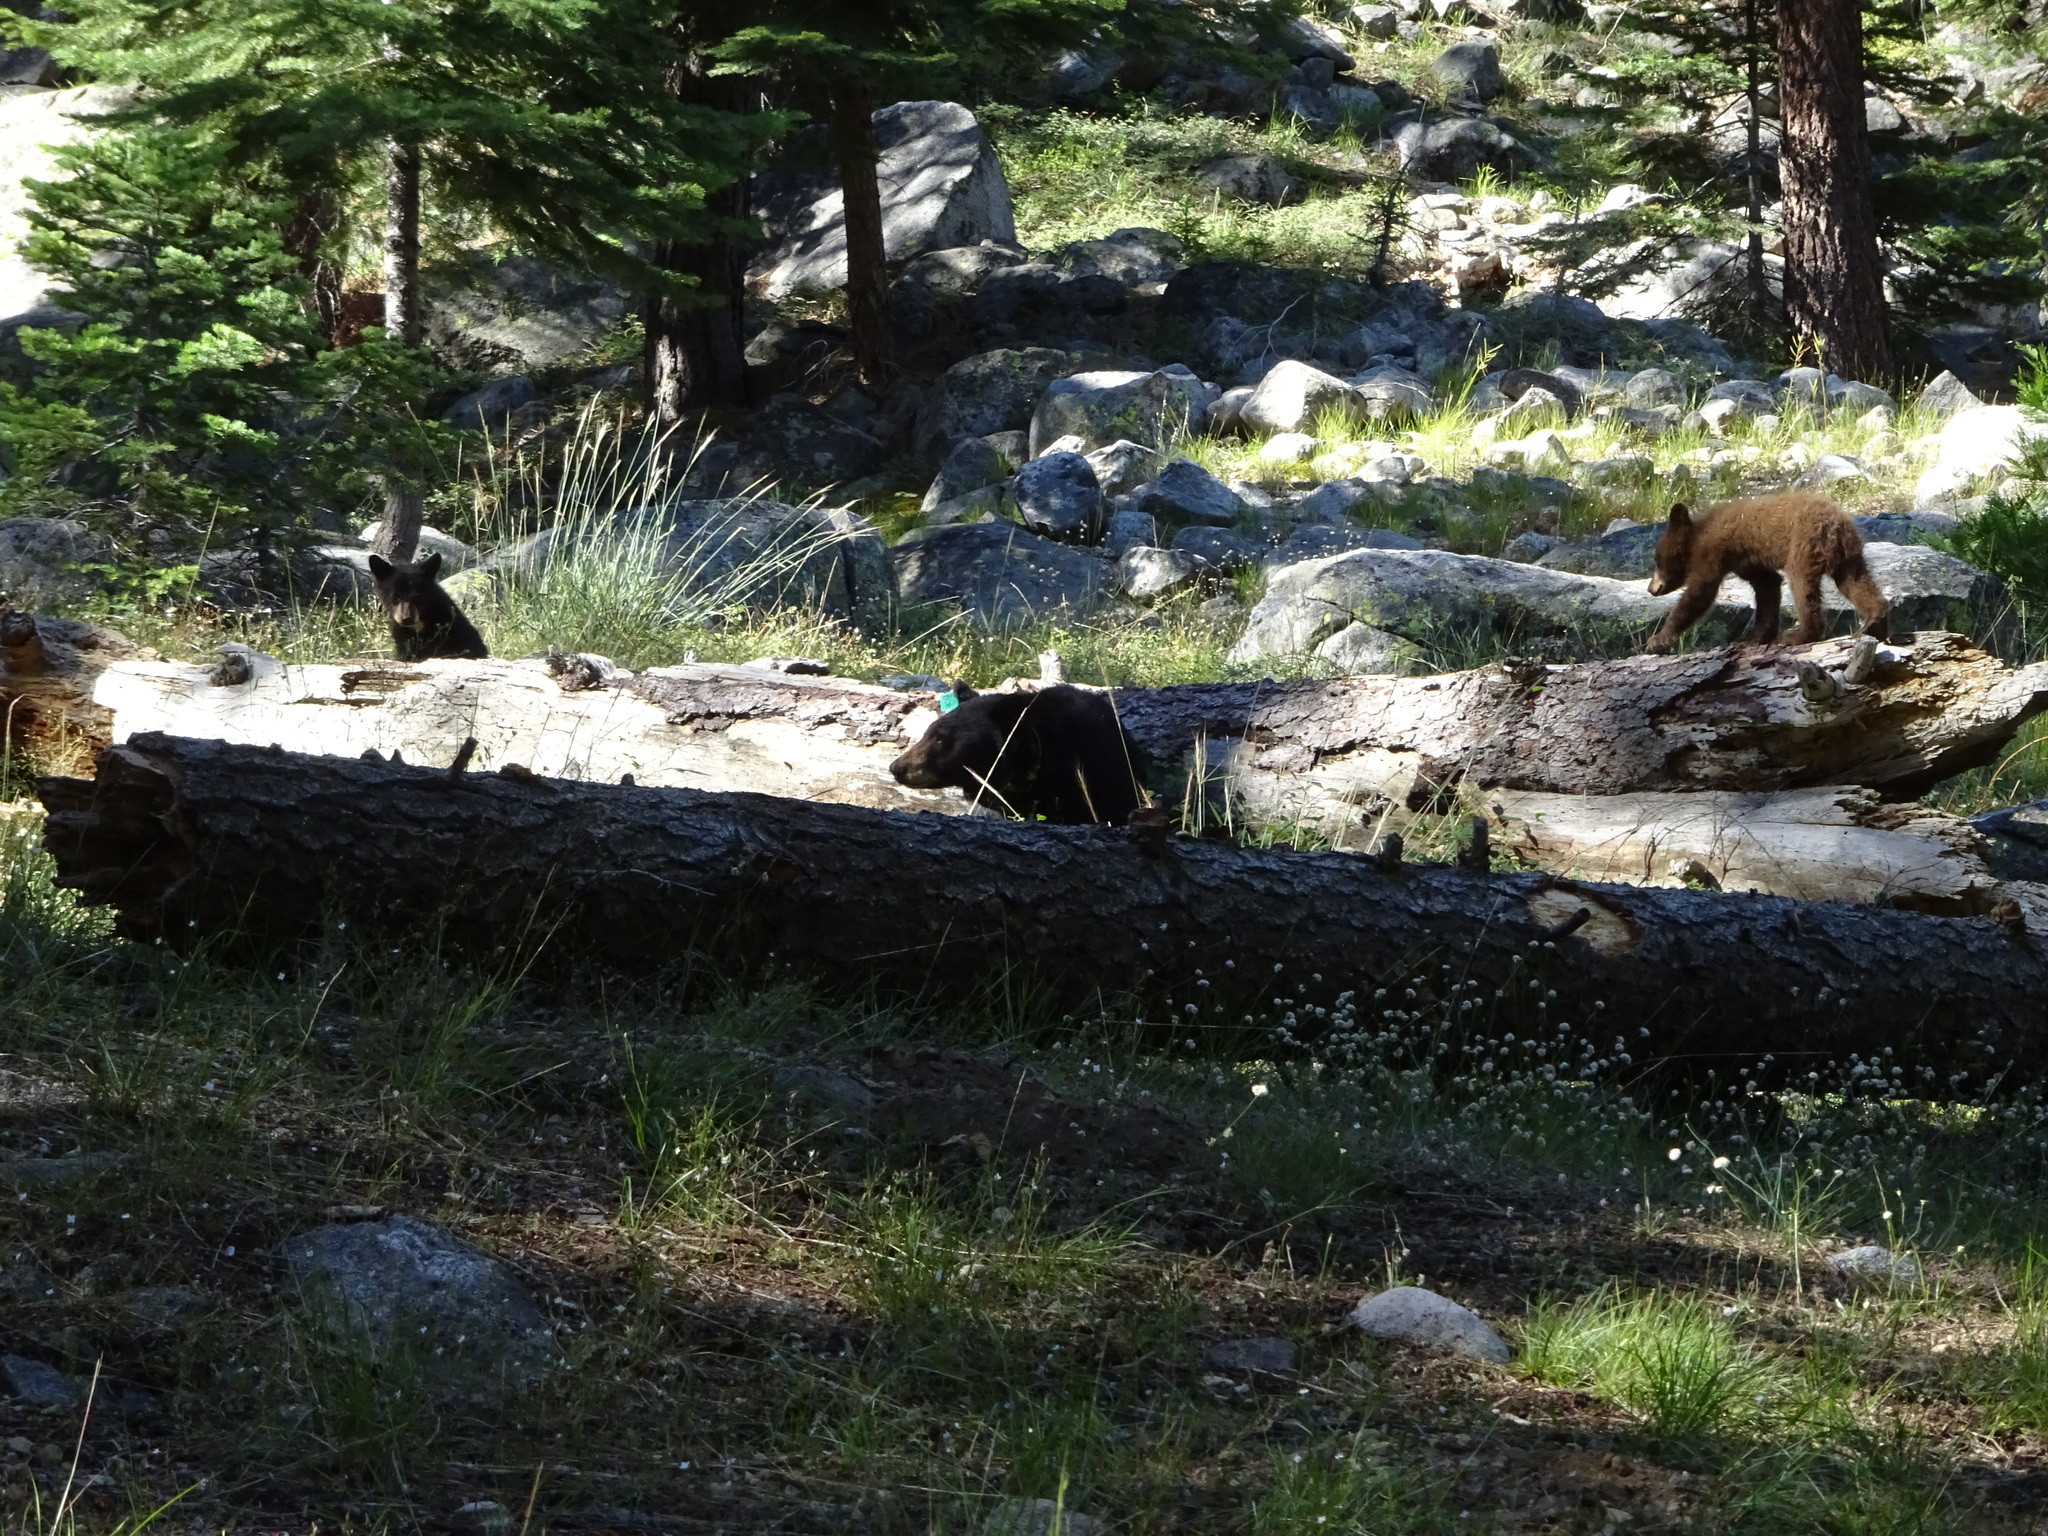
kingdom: Animalia
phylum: Chordata
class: Mammalia
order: Carnivora
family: Ursidae
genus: Ursus
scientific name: Ursus americanus
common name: American black bear
